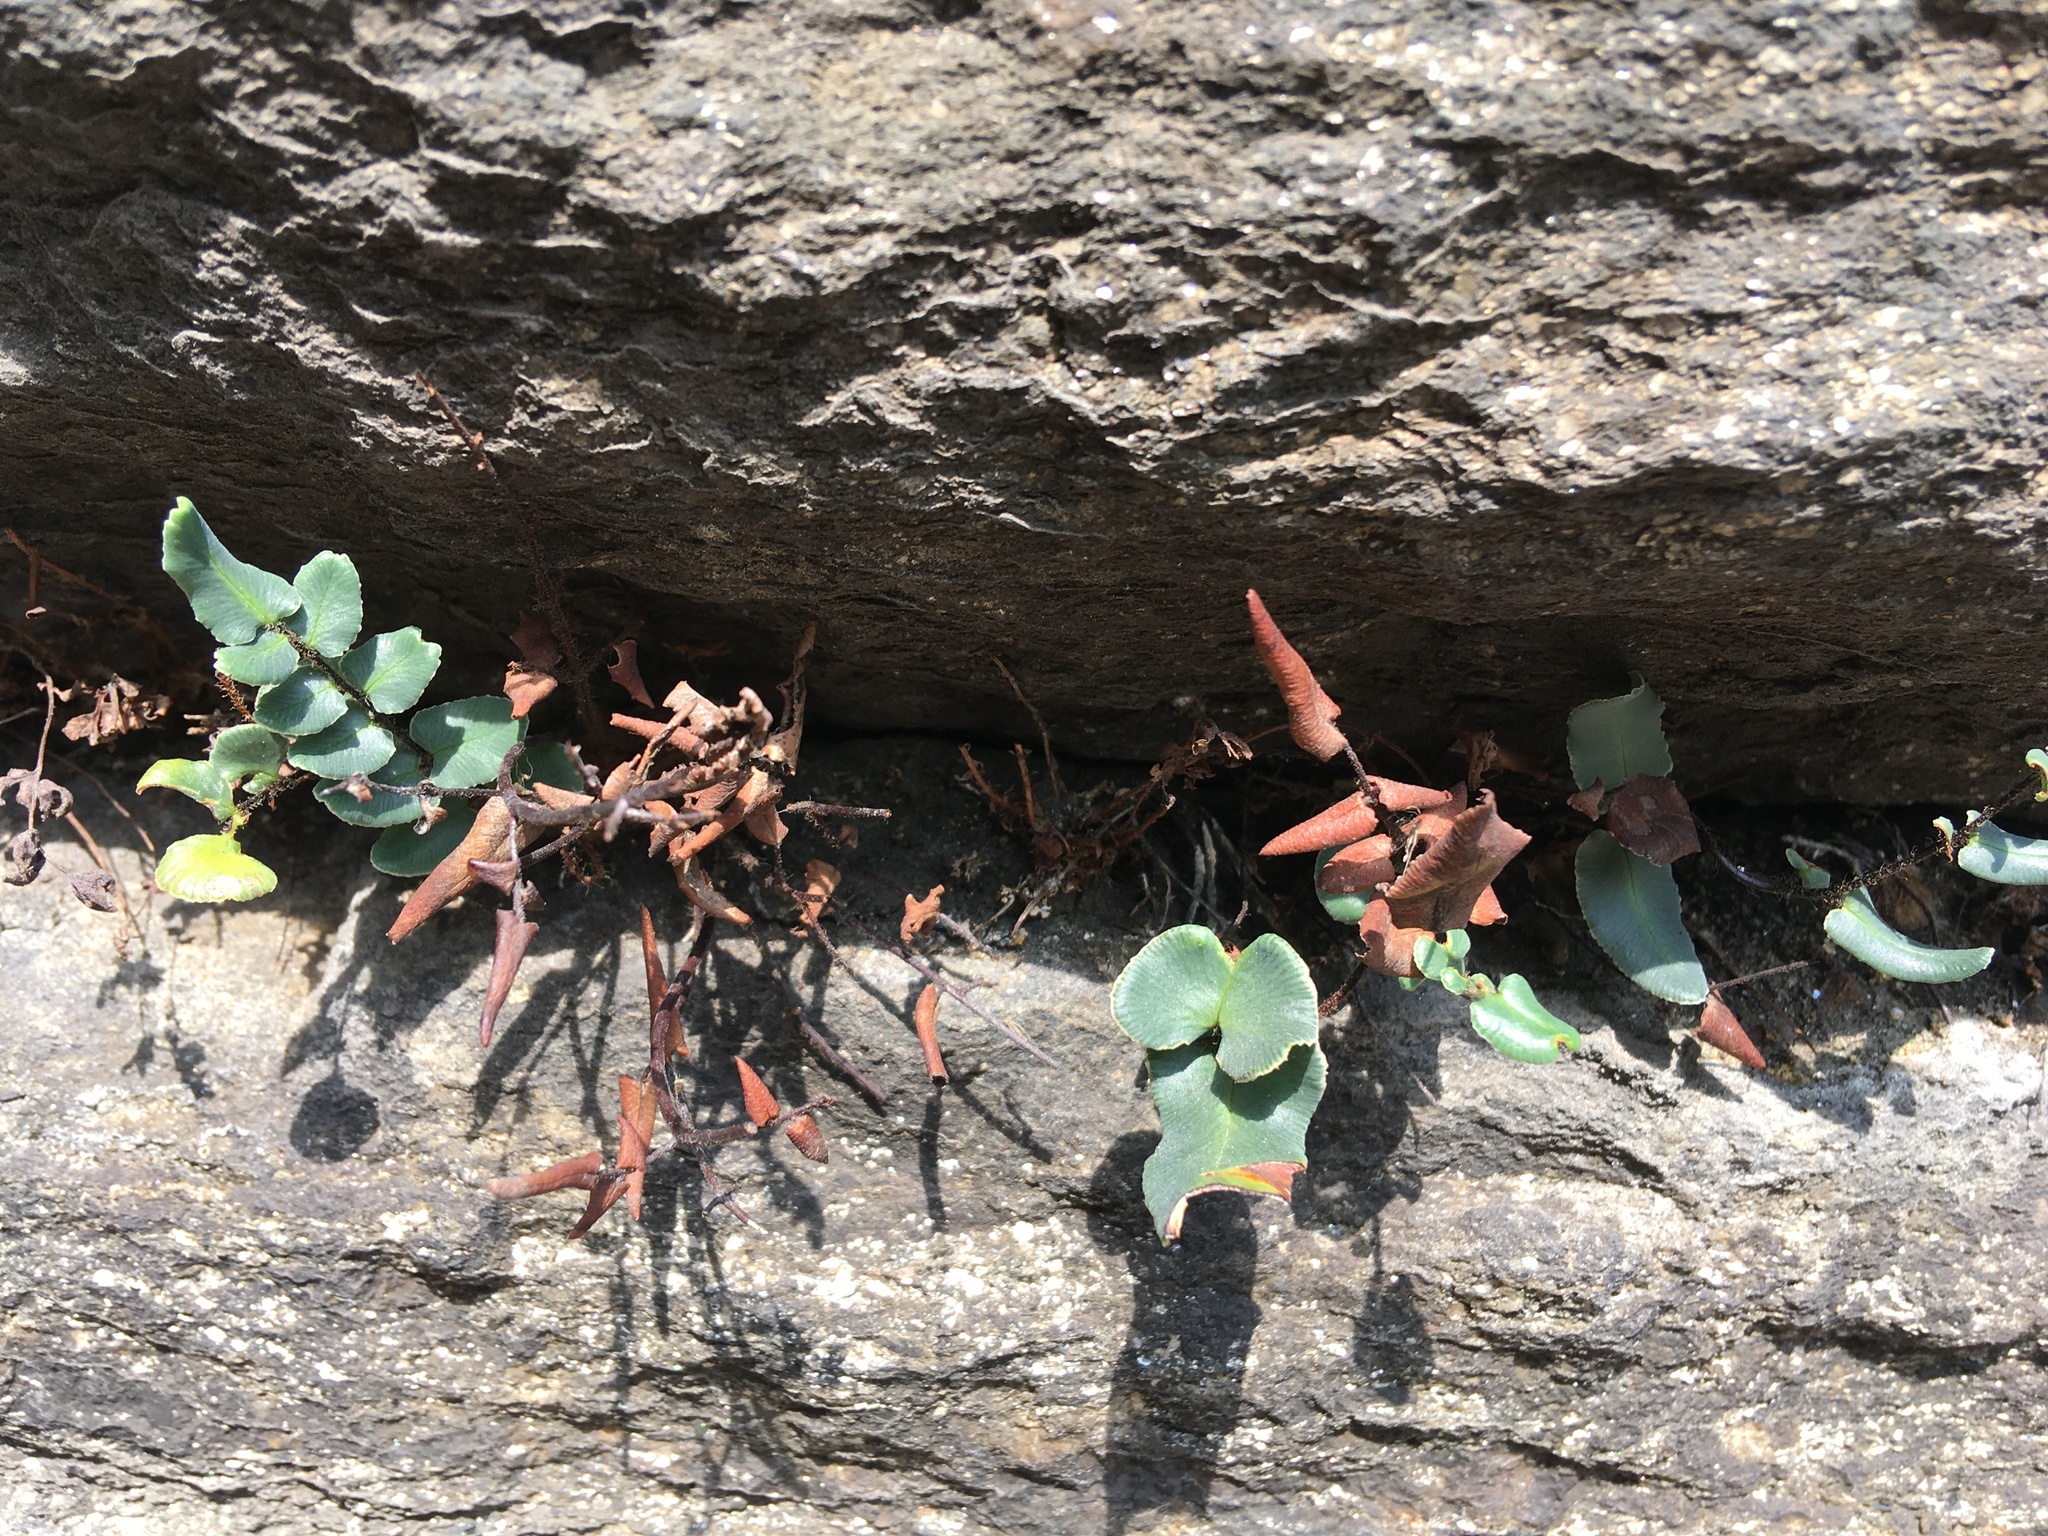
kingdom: Plantae
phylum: Tracheophyta
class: Polypodiopsida
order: Polypodiales
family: Pteridaceae
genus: Pellaea
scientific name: Pellaea atropurpurea
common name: Hairy cliffbrake
